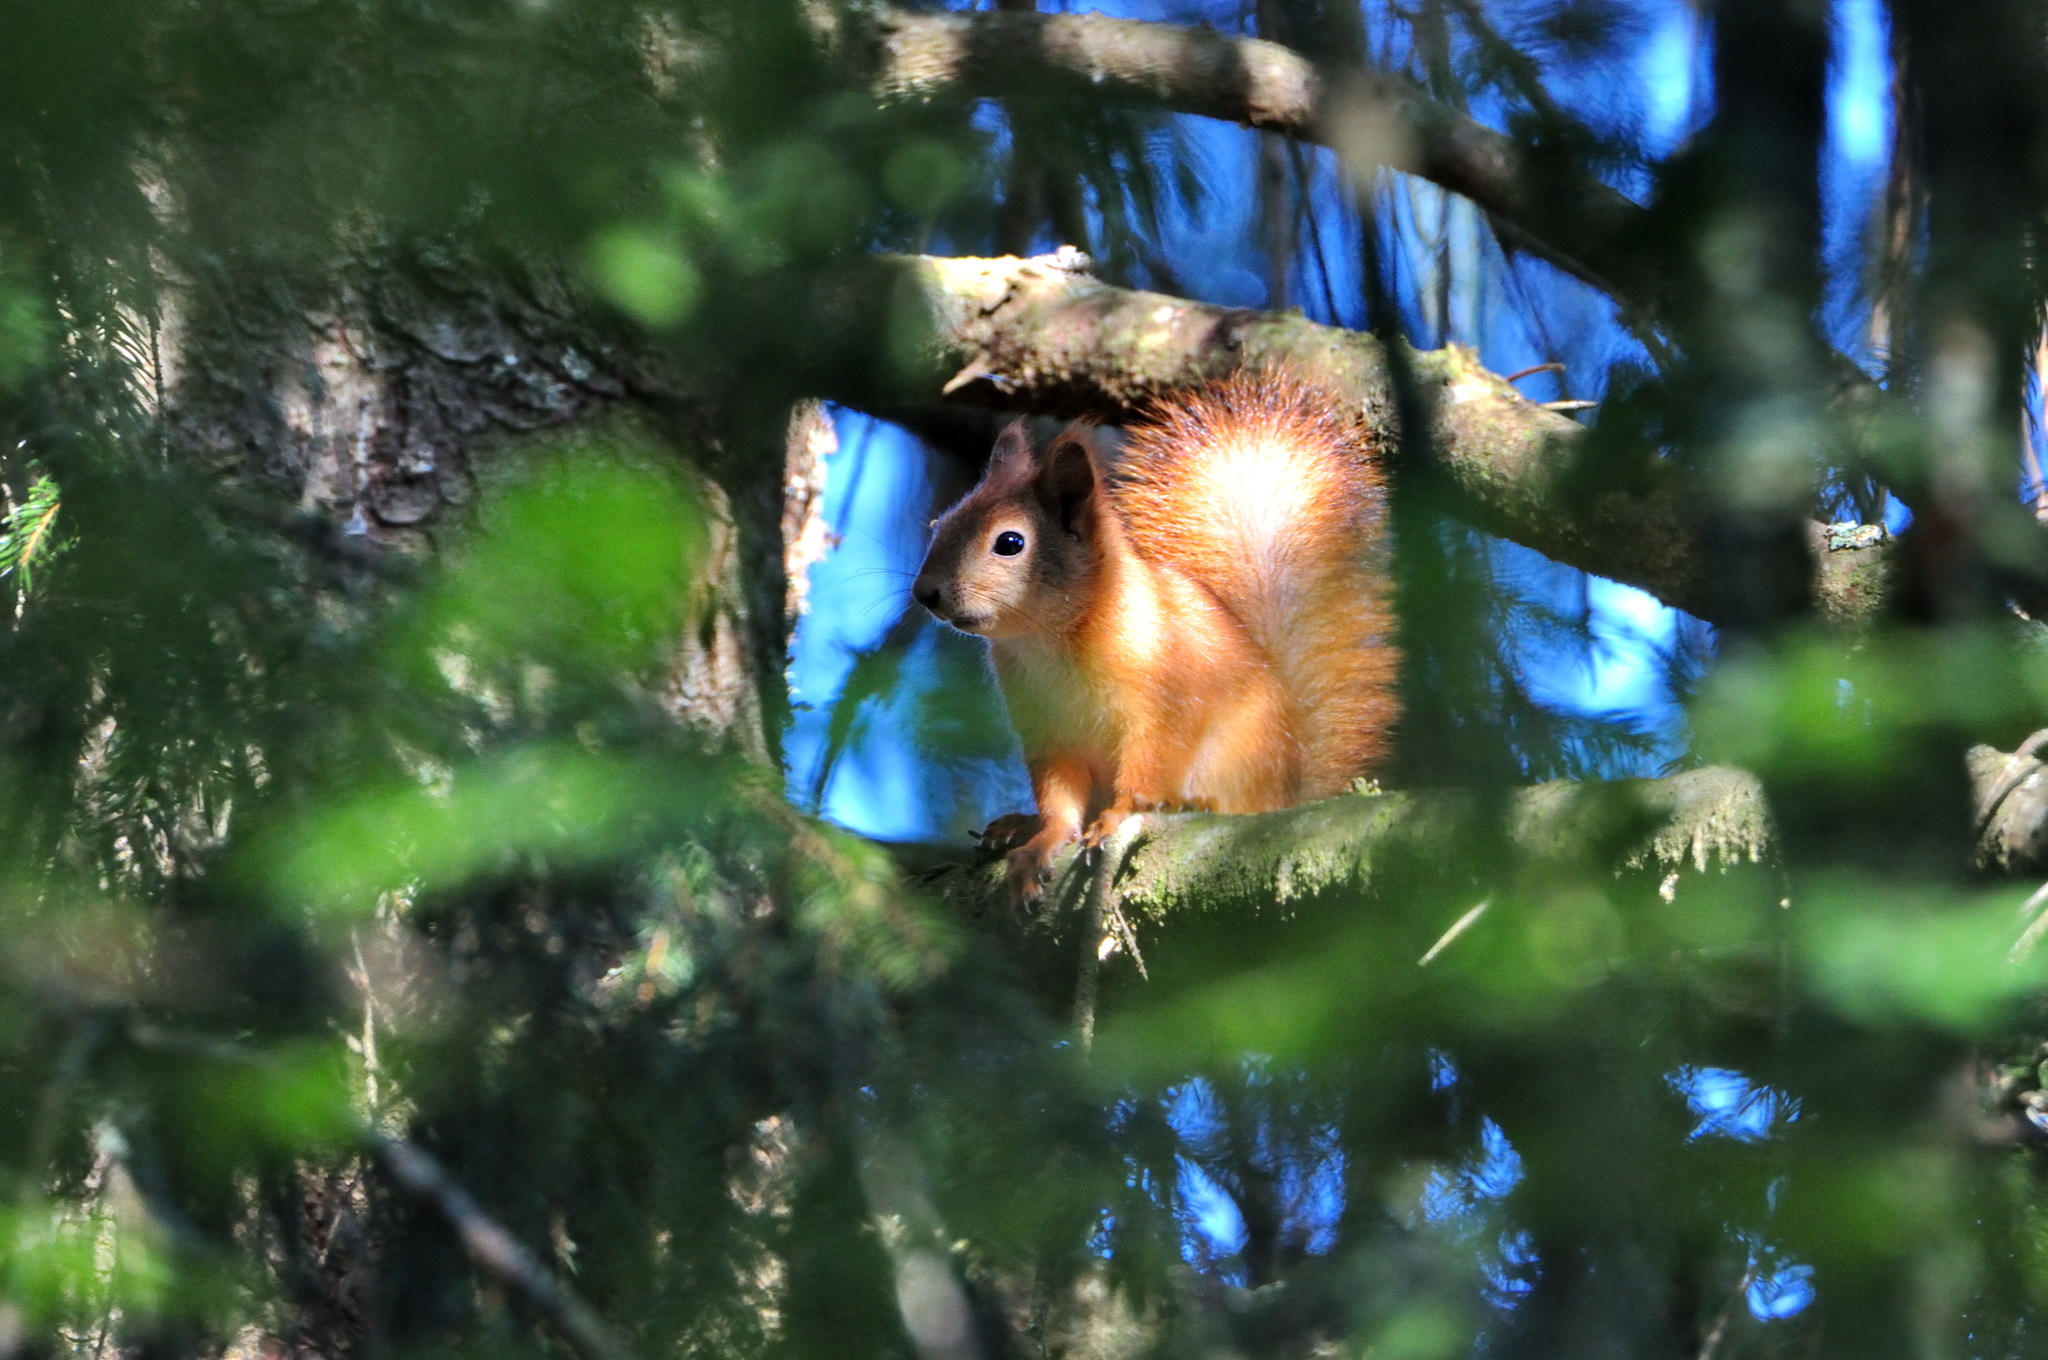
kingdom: Animalia
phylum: Chordata
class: Mammalia
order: Rodentia
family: Sciuridae
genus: Sciurus
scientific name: Sciurus vulgaris
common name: Eurasian red squirrel
